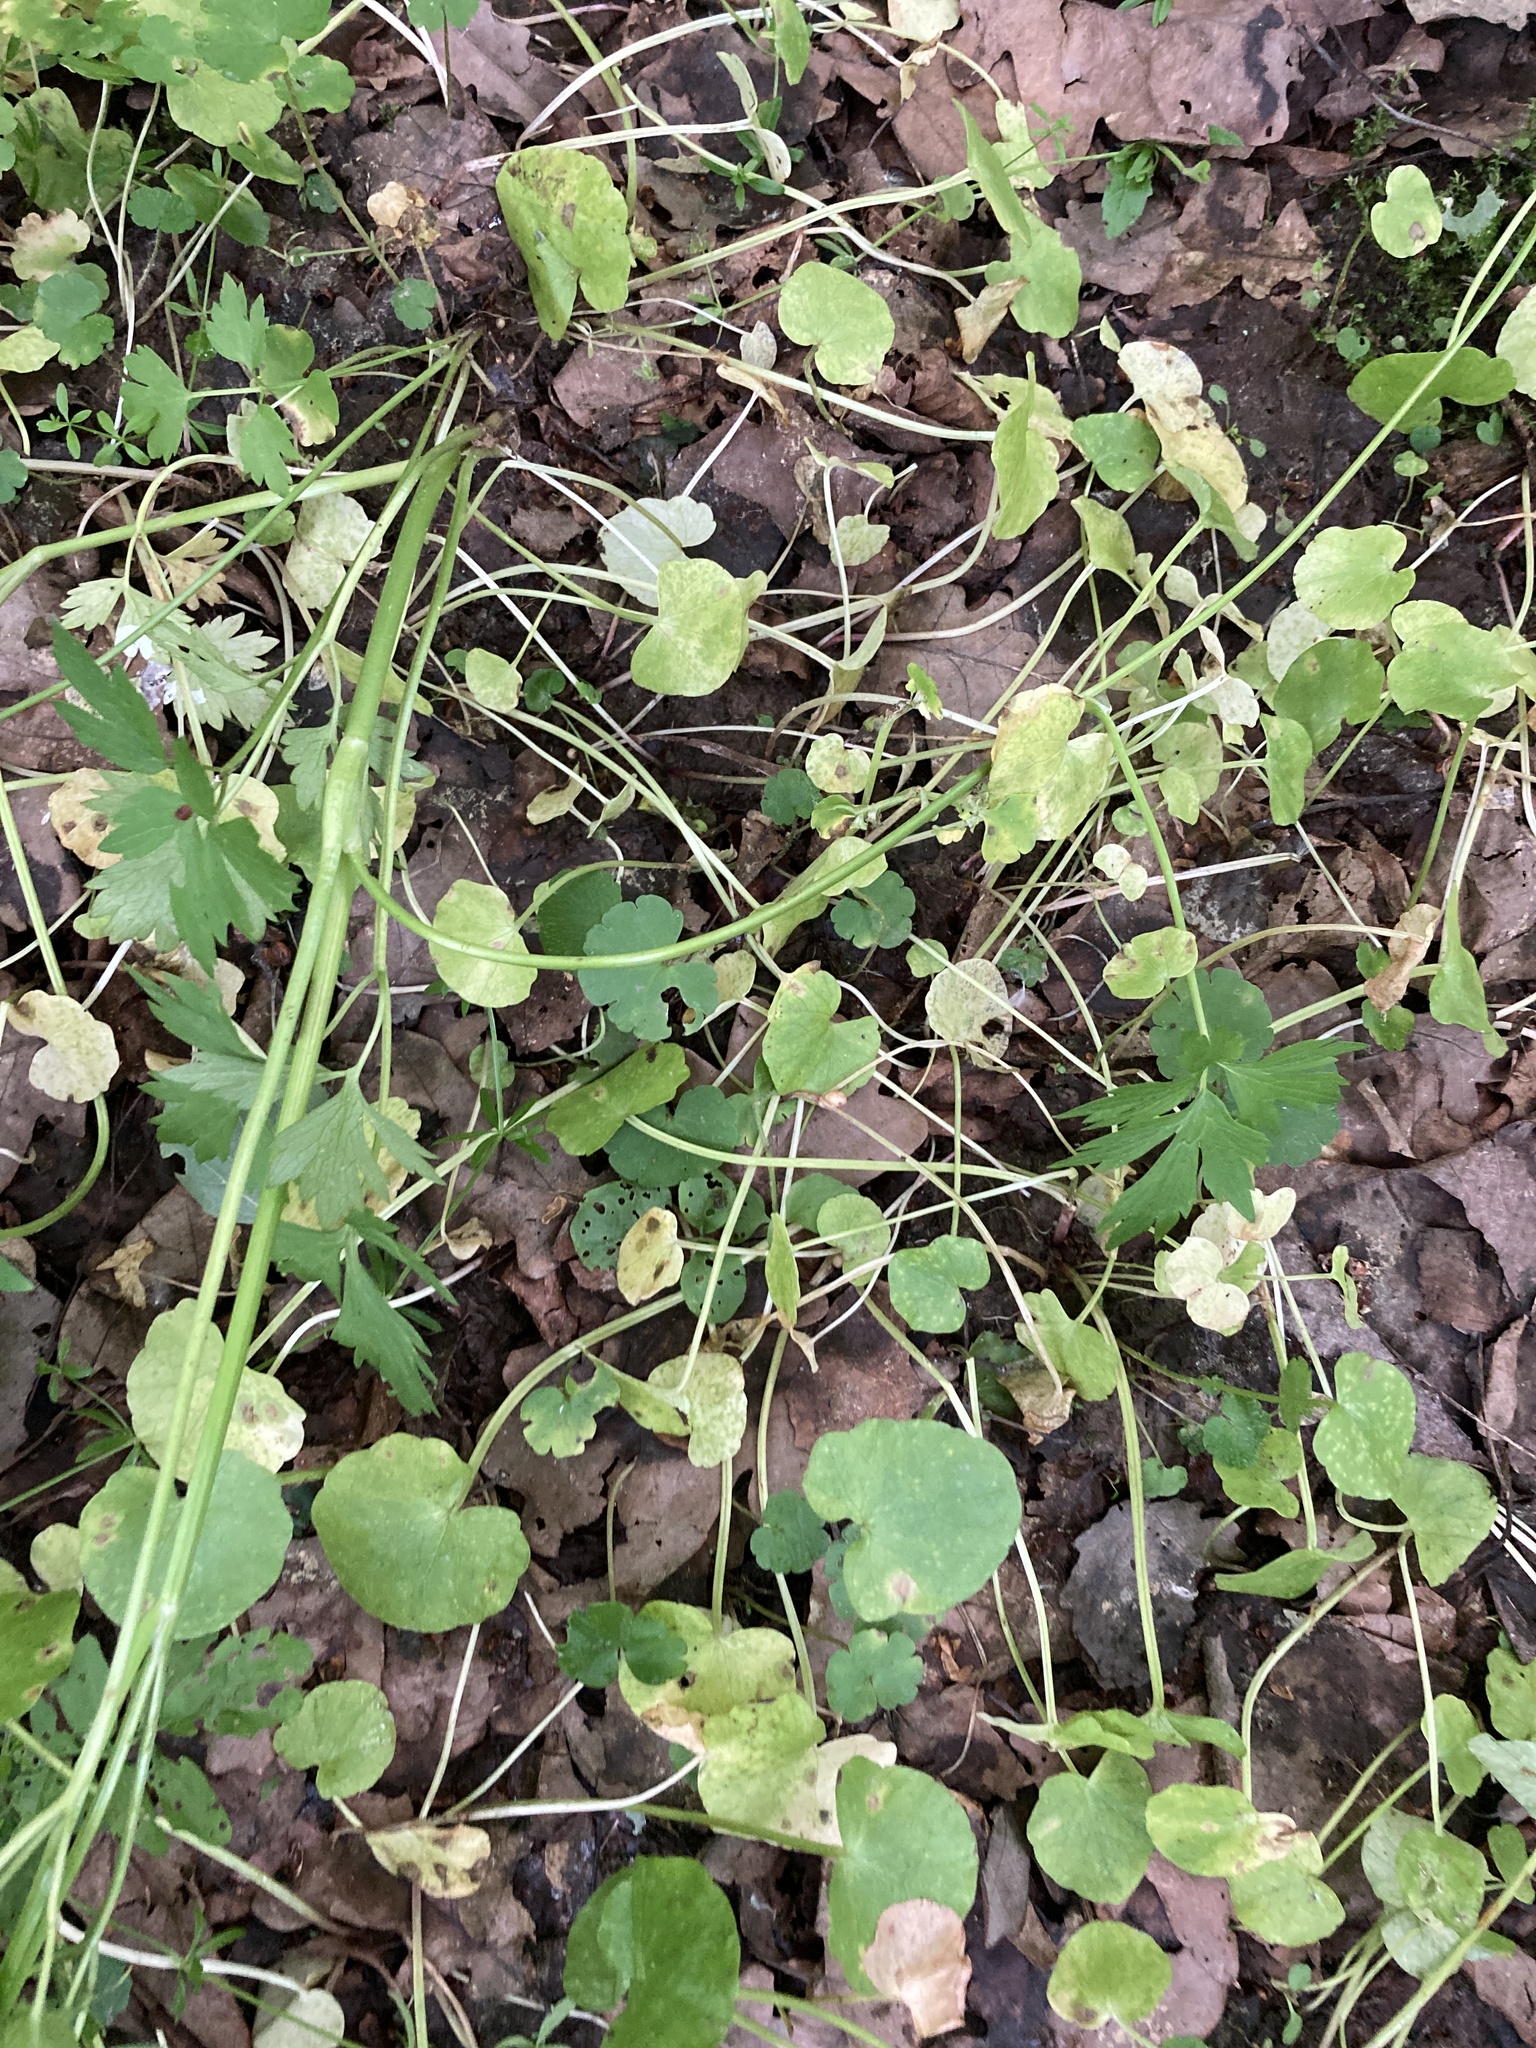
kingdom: Plantae
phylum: Tracheophyta
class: Magnoliopsida
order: Ranunculales
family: Ranunculaceae
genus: Ficaria
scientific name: Ficaria verna
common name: Lesser celandine
